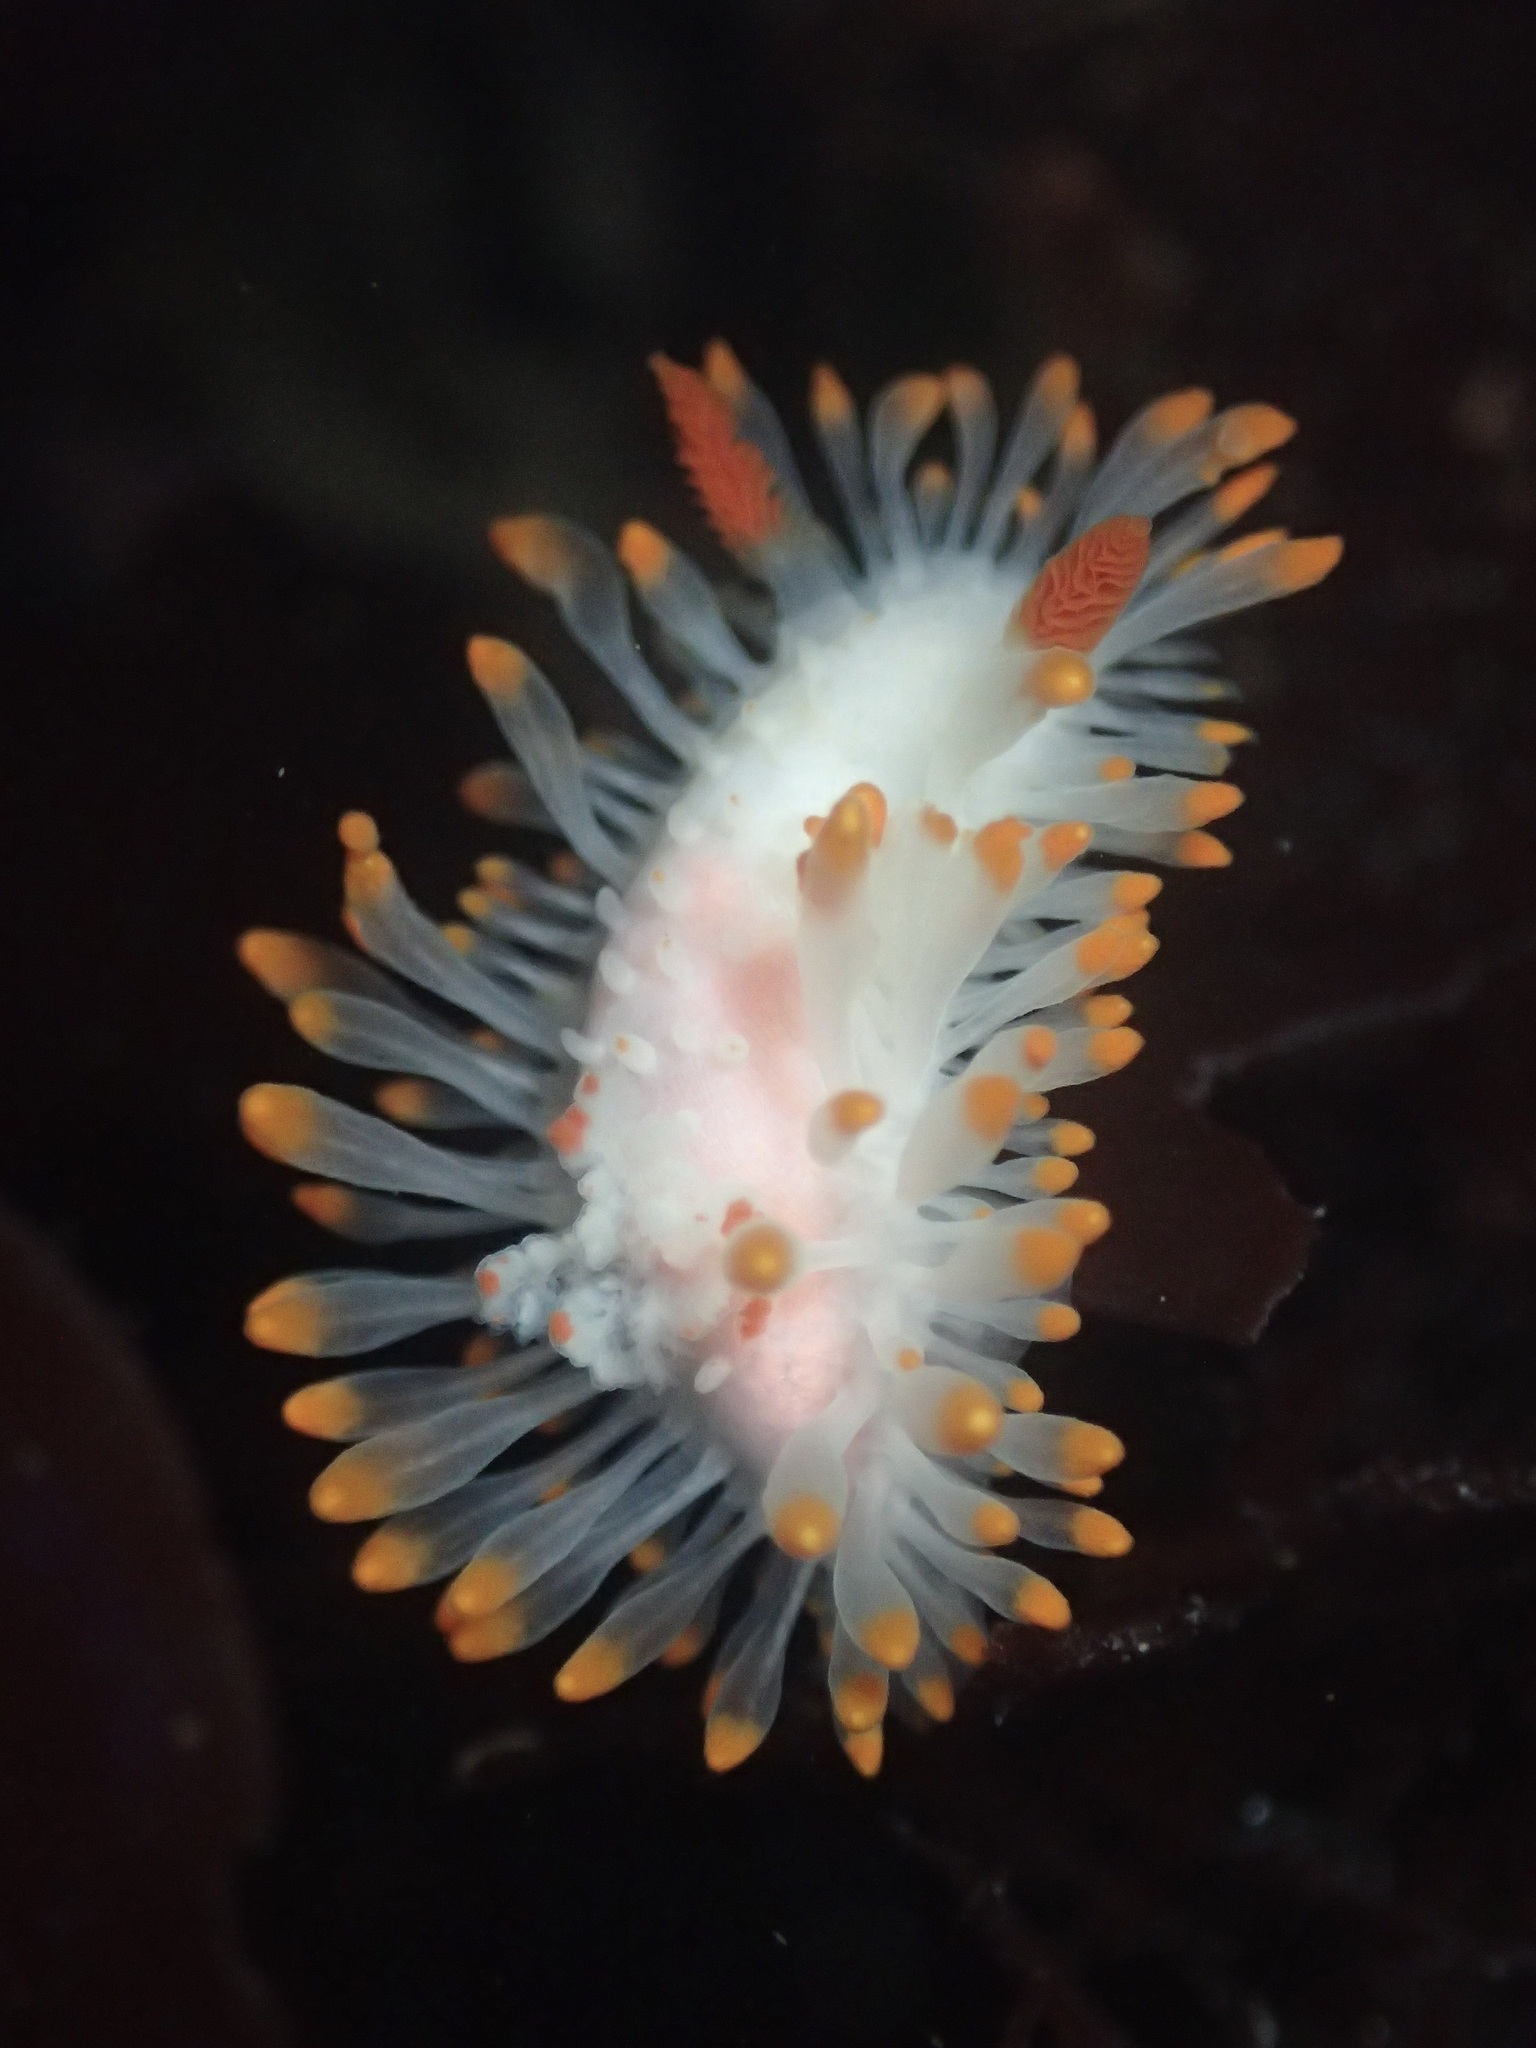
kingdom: Animalia
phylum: Mollusca
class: Gastropoda
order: Nudibranchia
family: Polyceridae
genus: Limacia
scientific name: Limacia cockerelli
